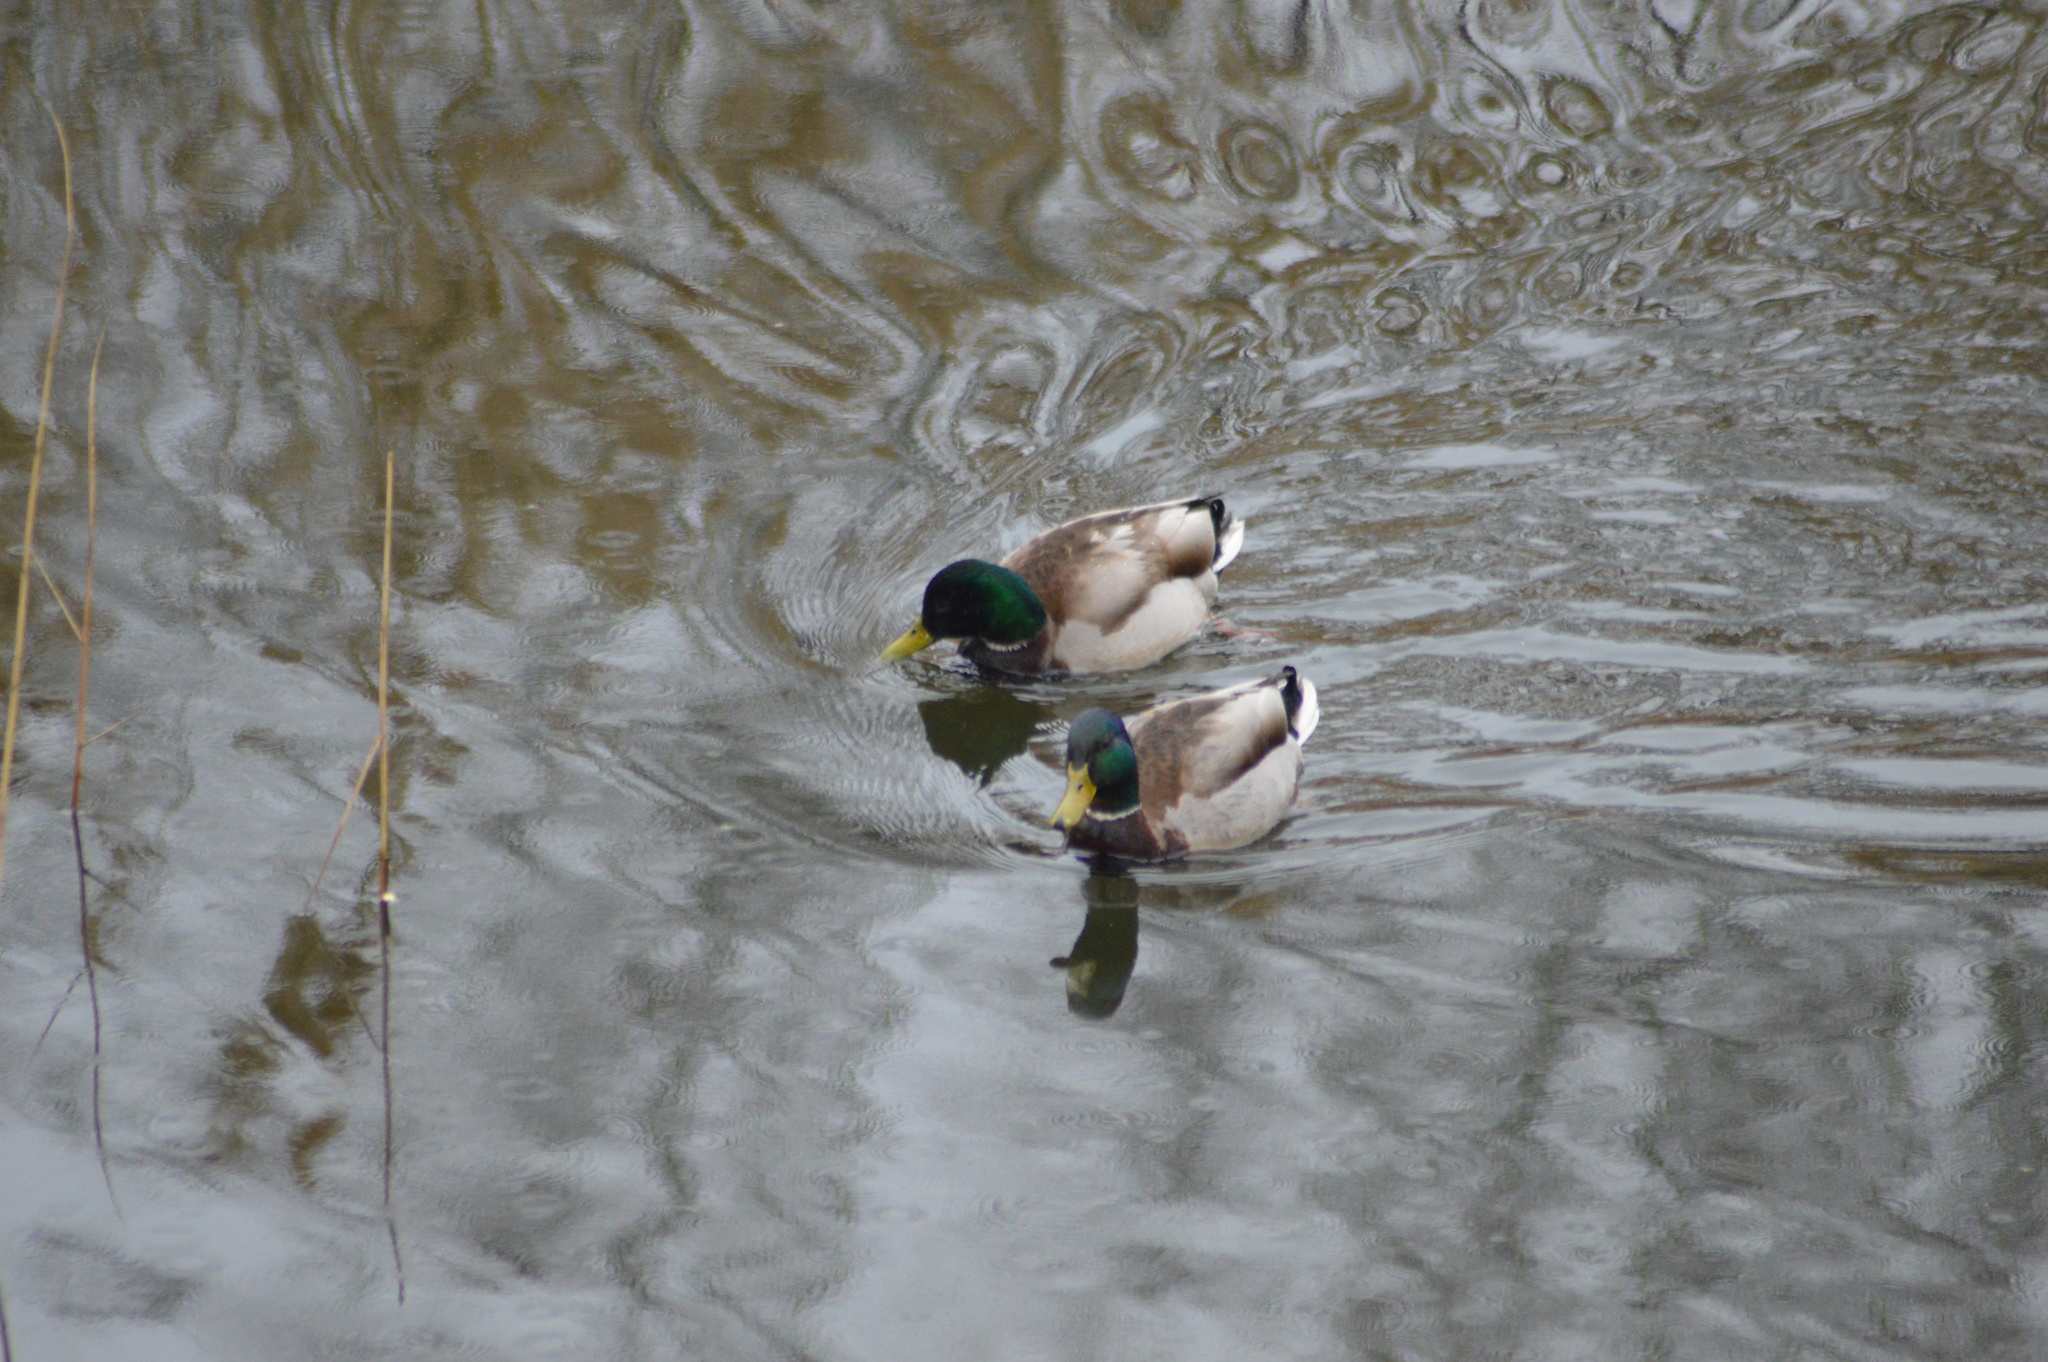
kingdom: Animalia
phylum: Chordata
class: Aves
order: Anseriformes
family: Anatidae
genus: Anas
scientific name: Anas platyrhynchos
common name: Mallard
